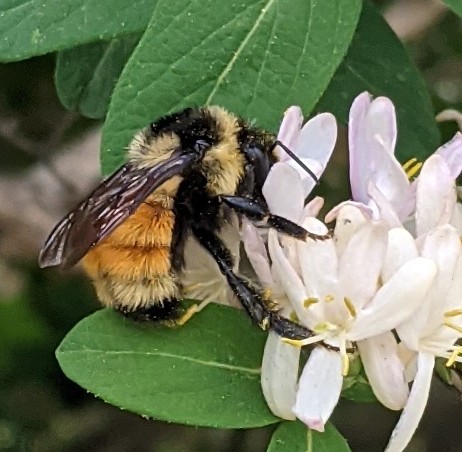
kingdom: Animalia
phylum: Arthropoda
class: Insecta
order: Hymenoptera
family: Apidae
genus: Bombus
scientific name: Bombus ternarius
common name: Tri-colored bumble bee
